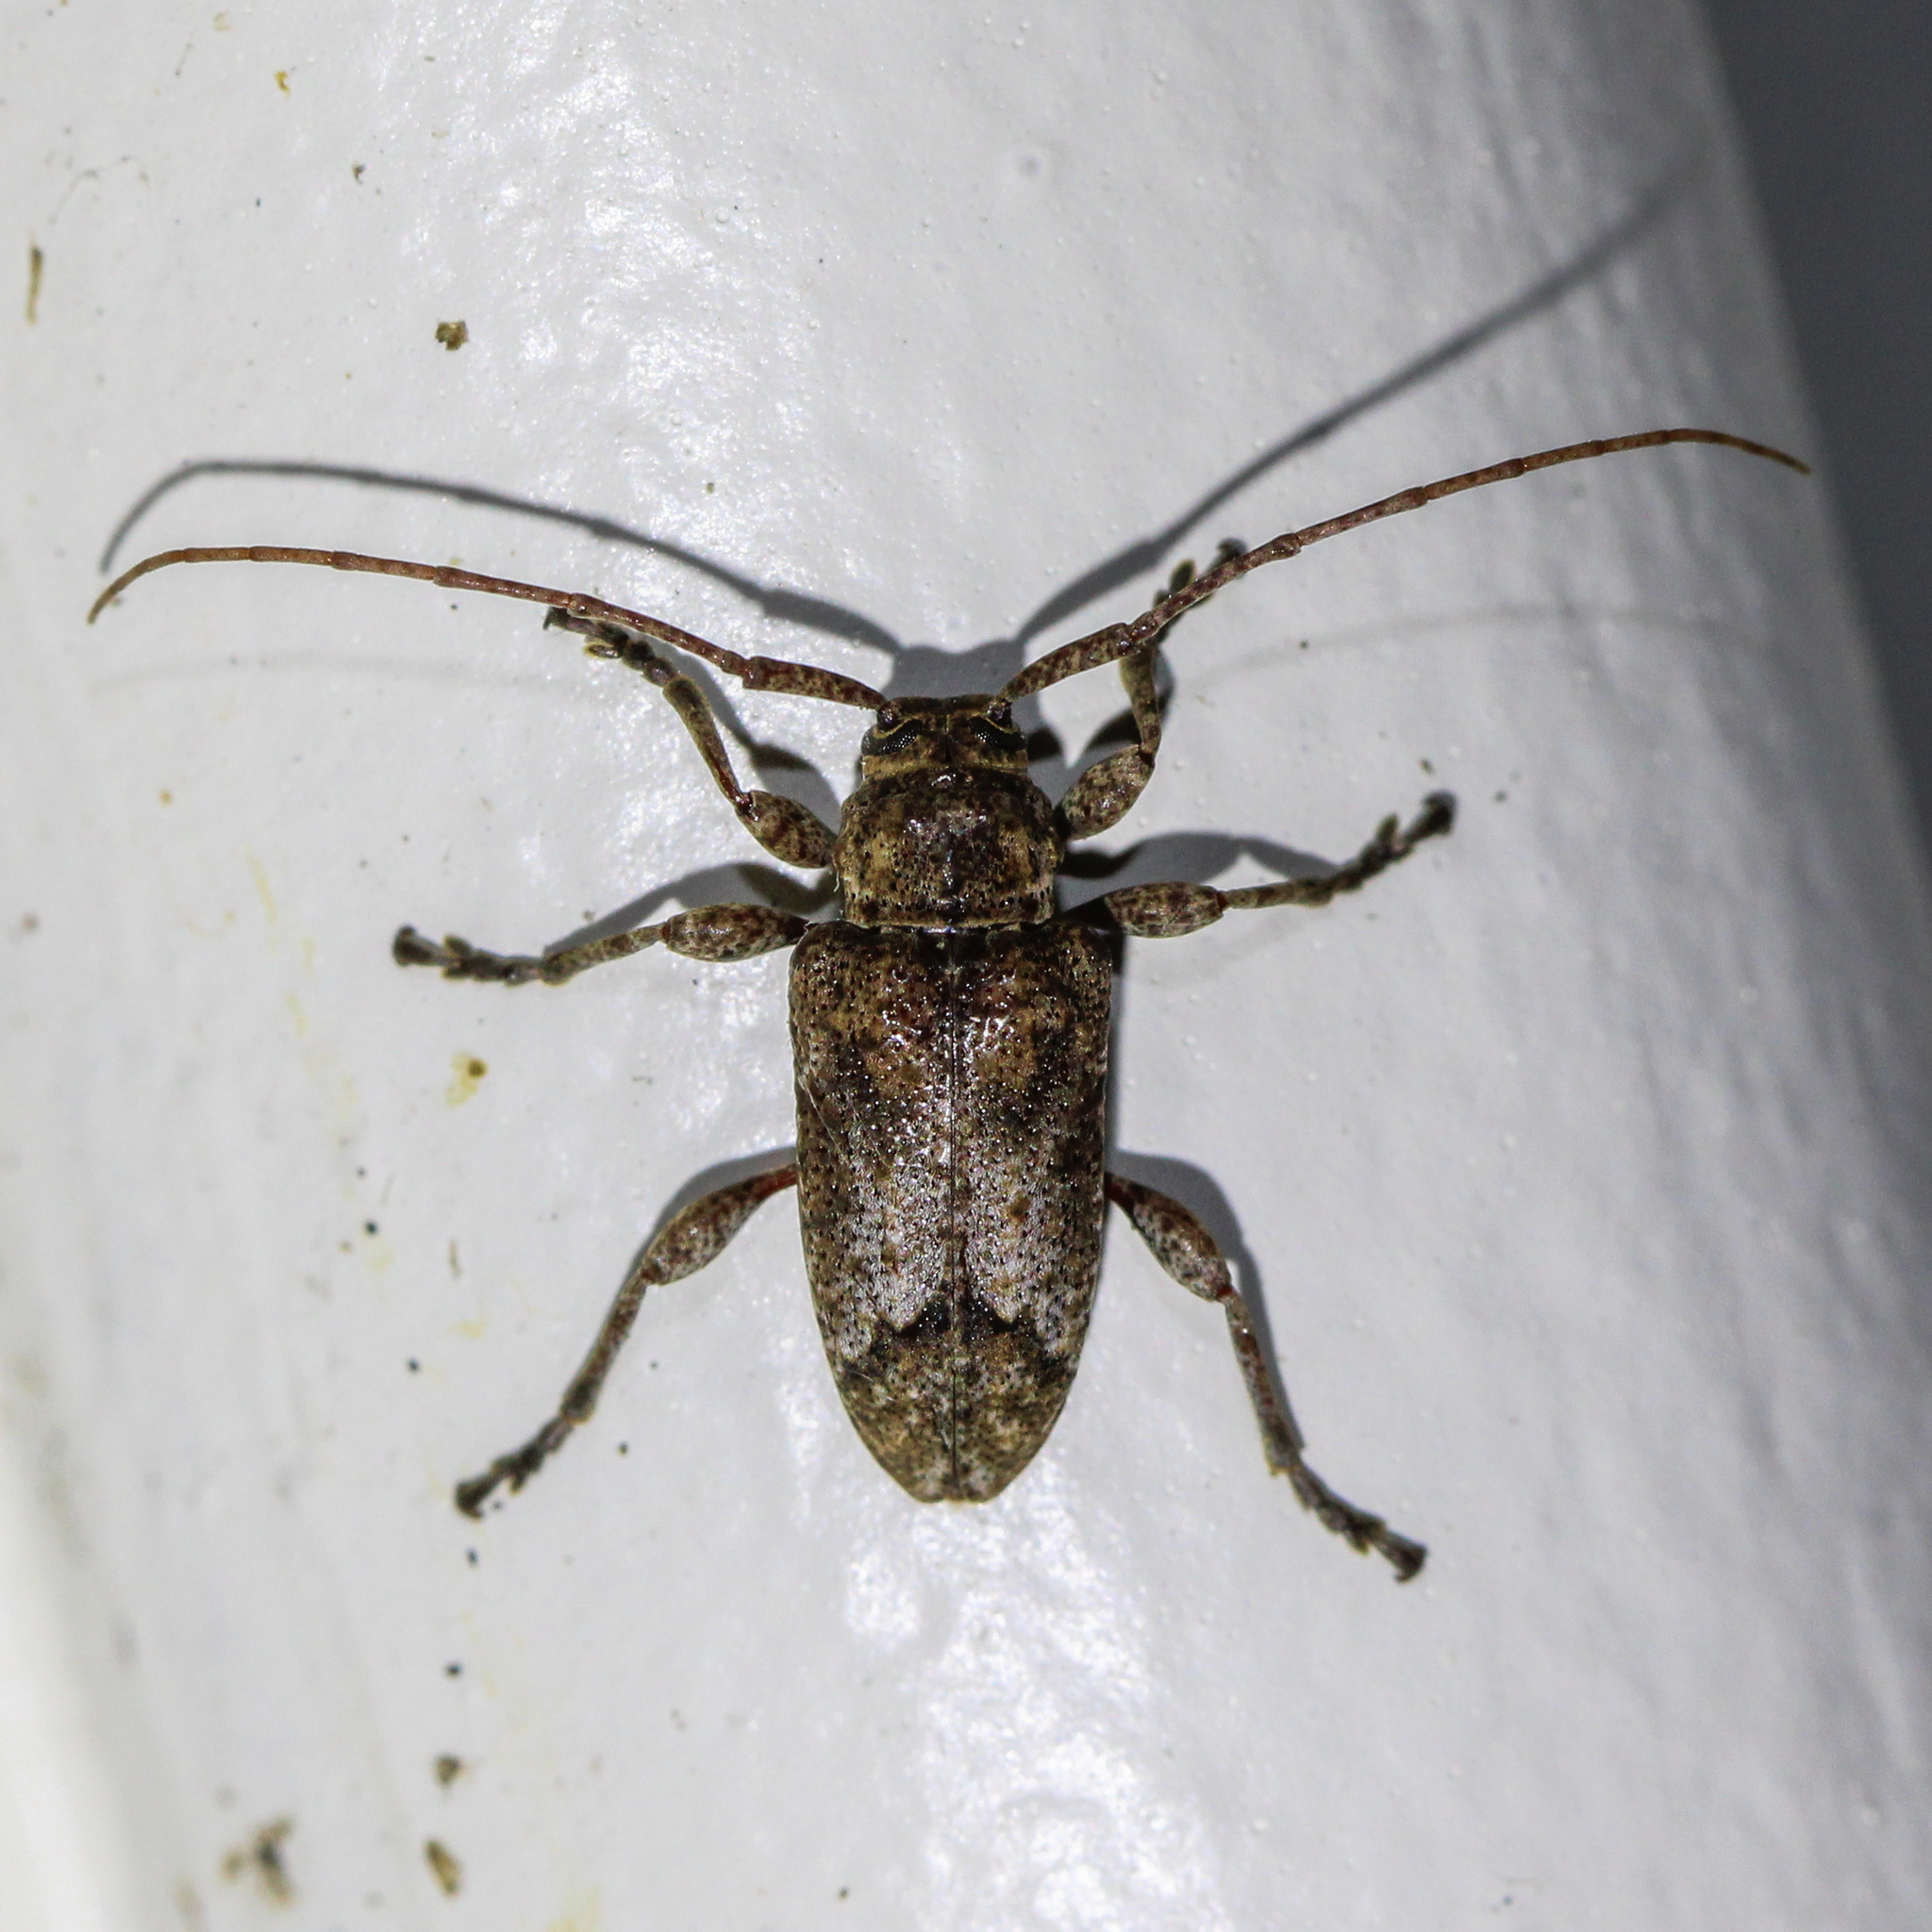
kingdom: Animalia
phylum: Arthropoda
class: Insecta
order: Coleoptera
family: Cerambycidae
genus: Astylopsis
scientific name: Astylopsis perplexa
